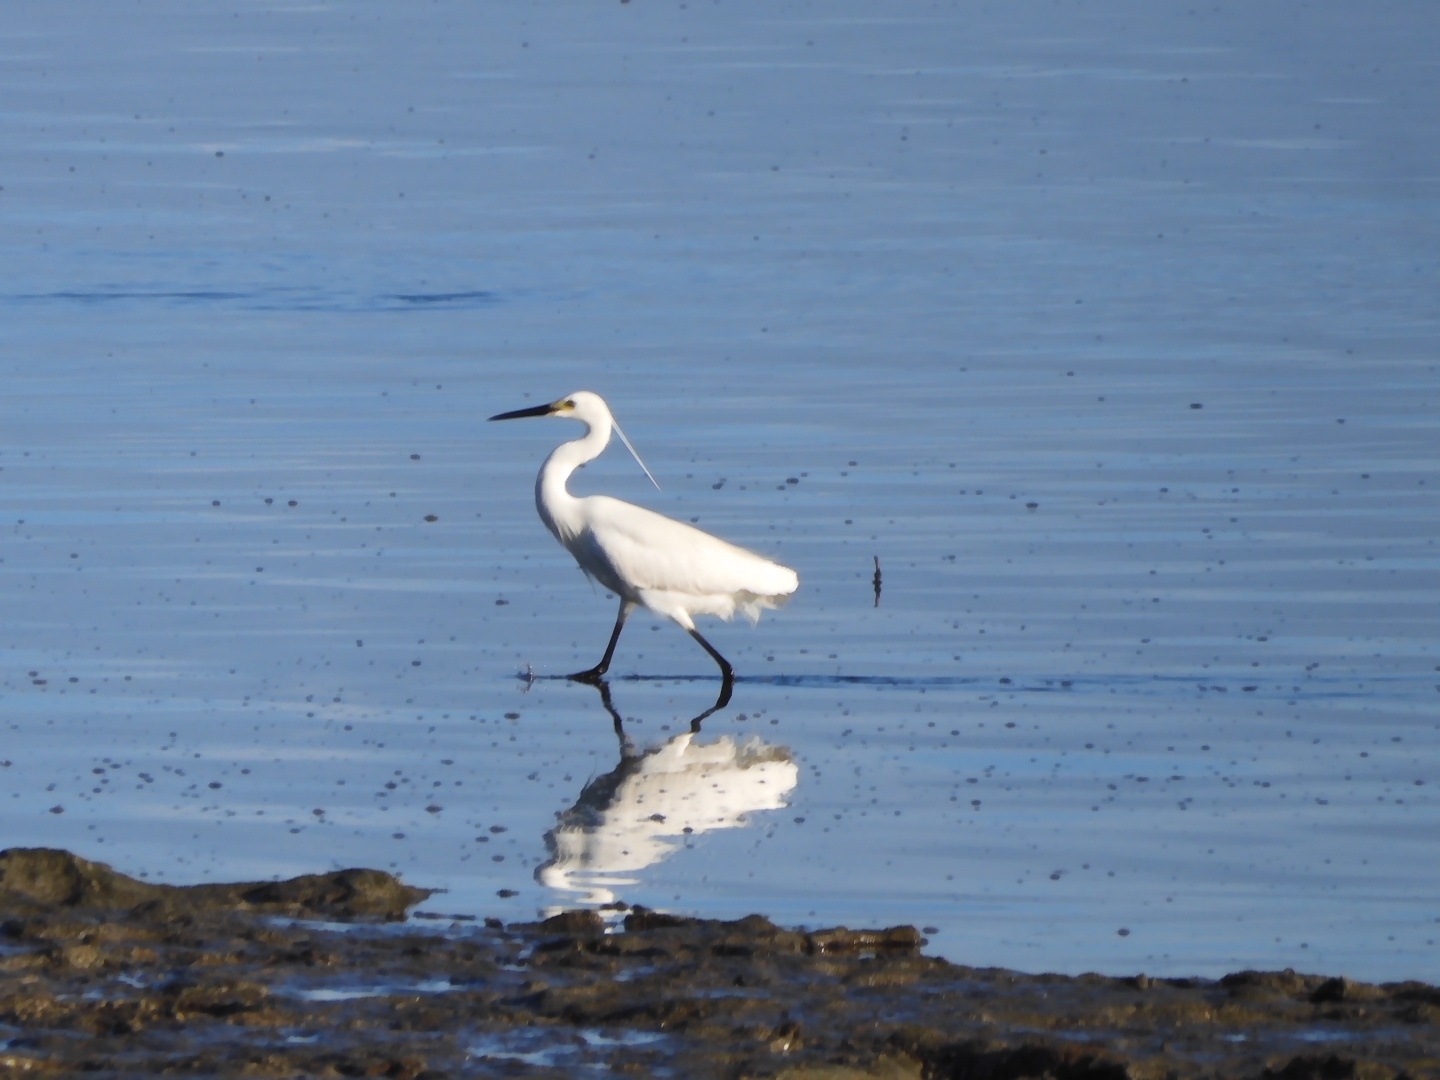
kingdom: Animalia
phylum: Chordata
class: Aves
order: Pelecaniformes
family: Ardeidae
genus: Egretta
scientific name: Egretta garzetta
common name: Little egret
